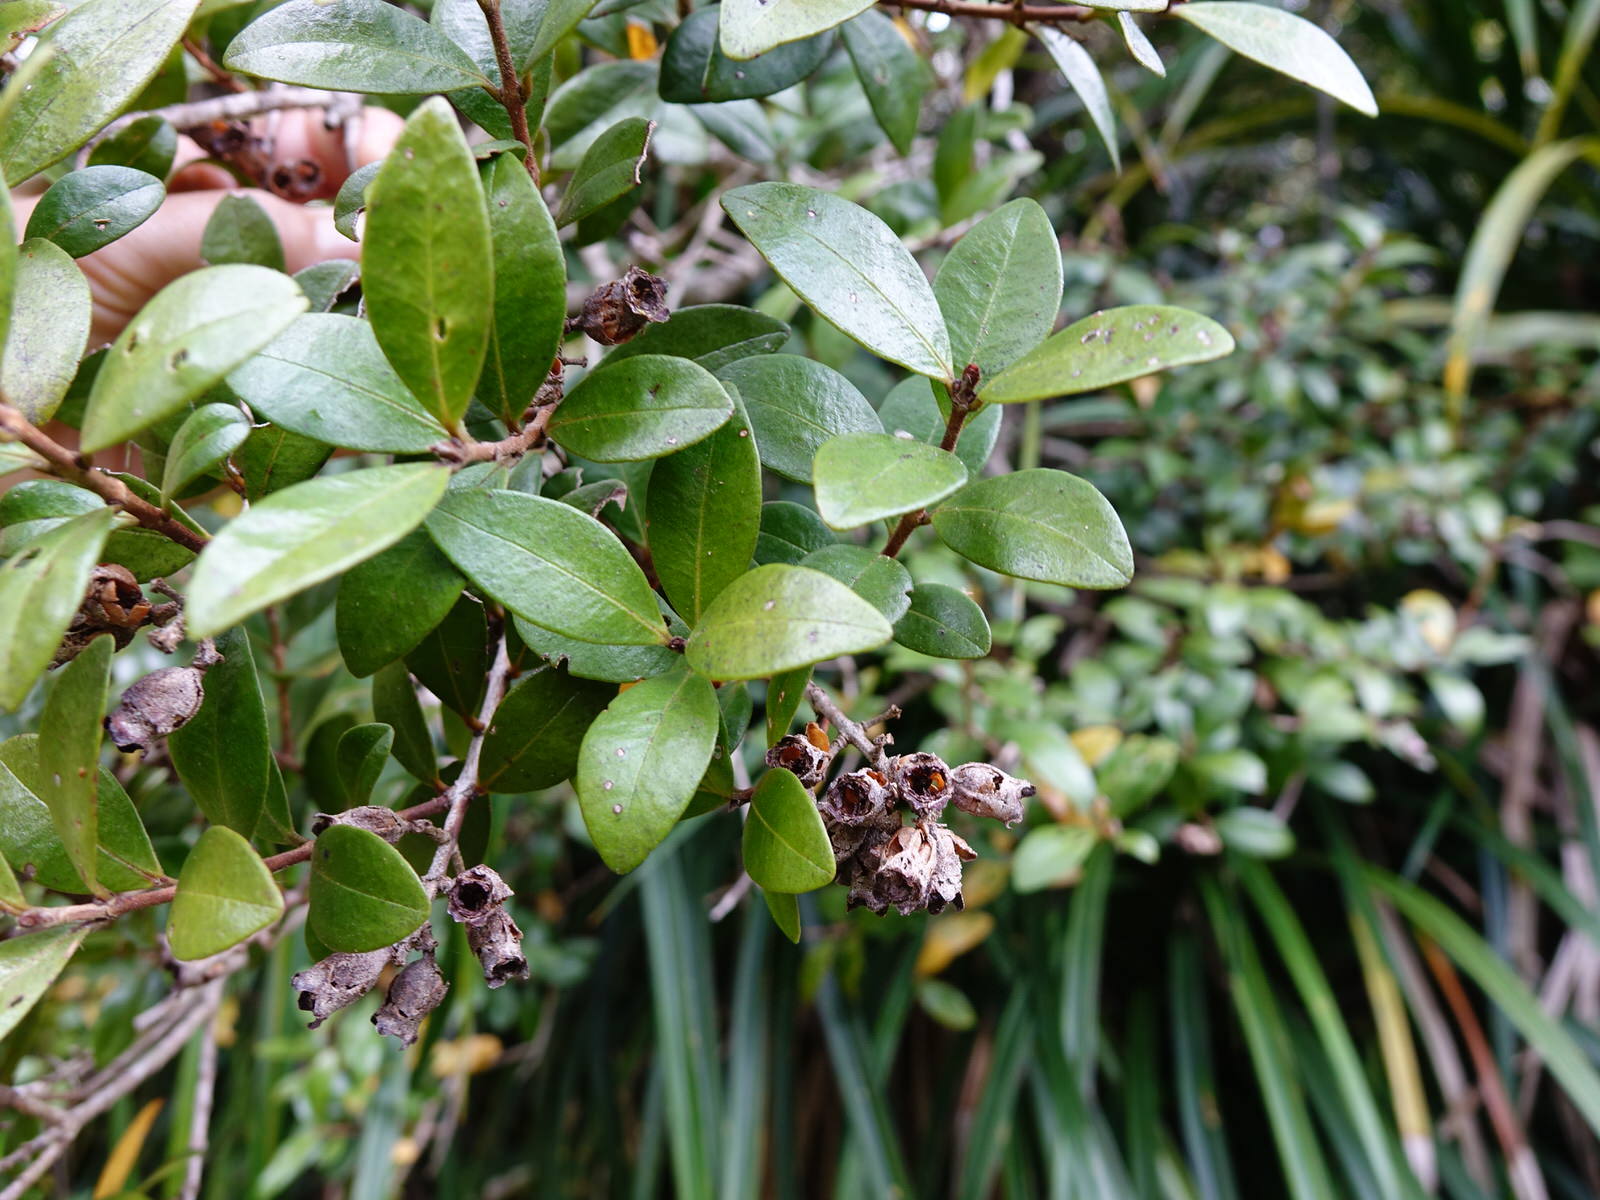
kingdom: Plantae
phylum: Tracheophyta
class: Magnoliopsida
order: Myrtales
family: Myrtaceae
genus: Metrosideros
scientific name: Metrosideros fulgens
